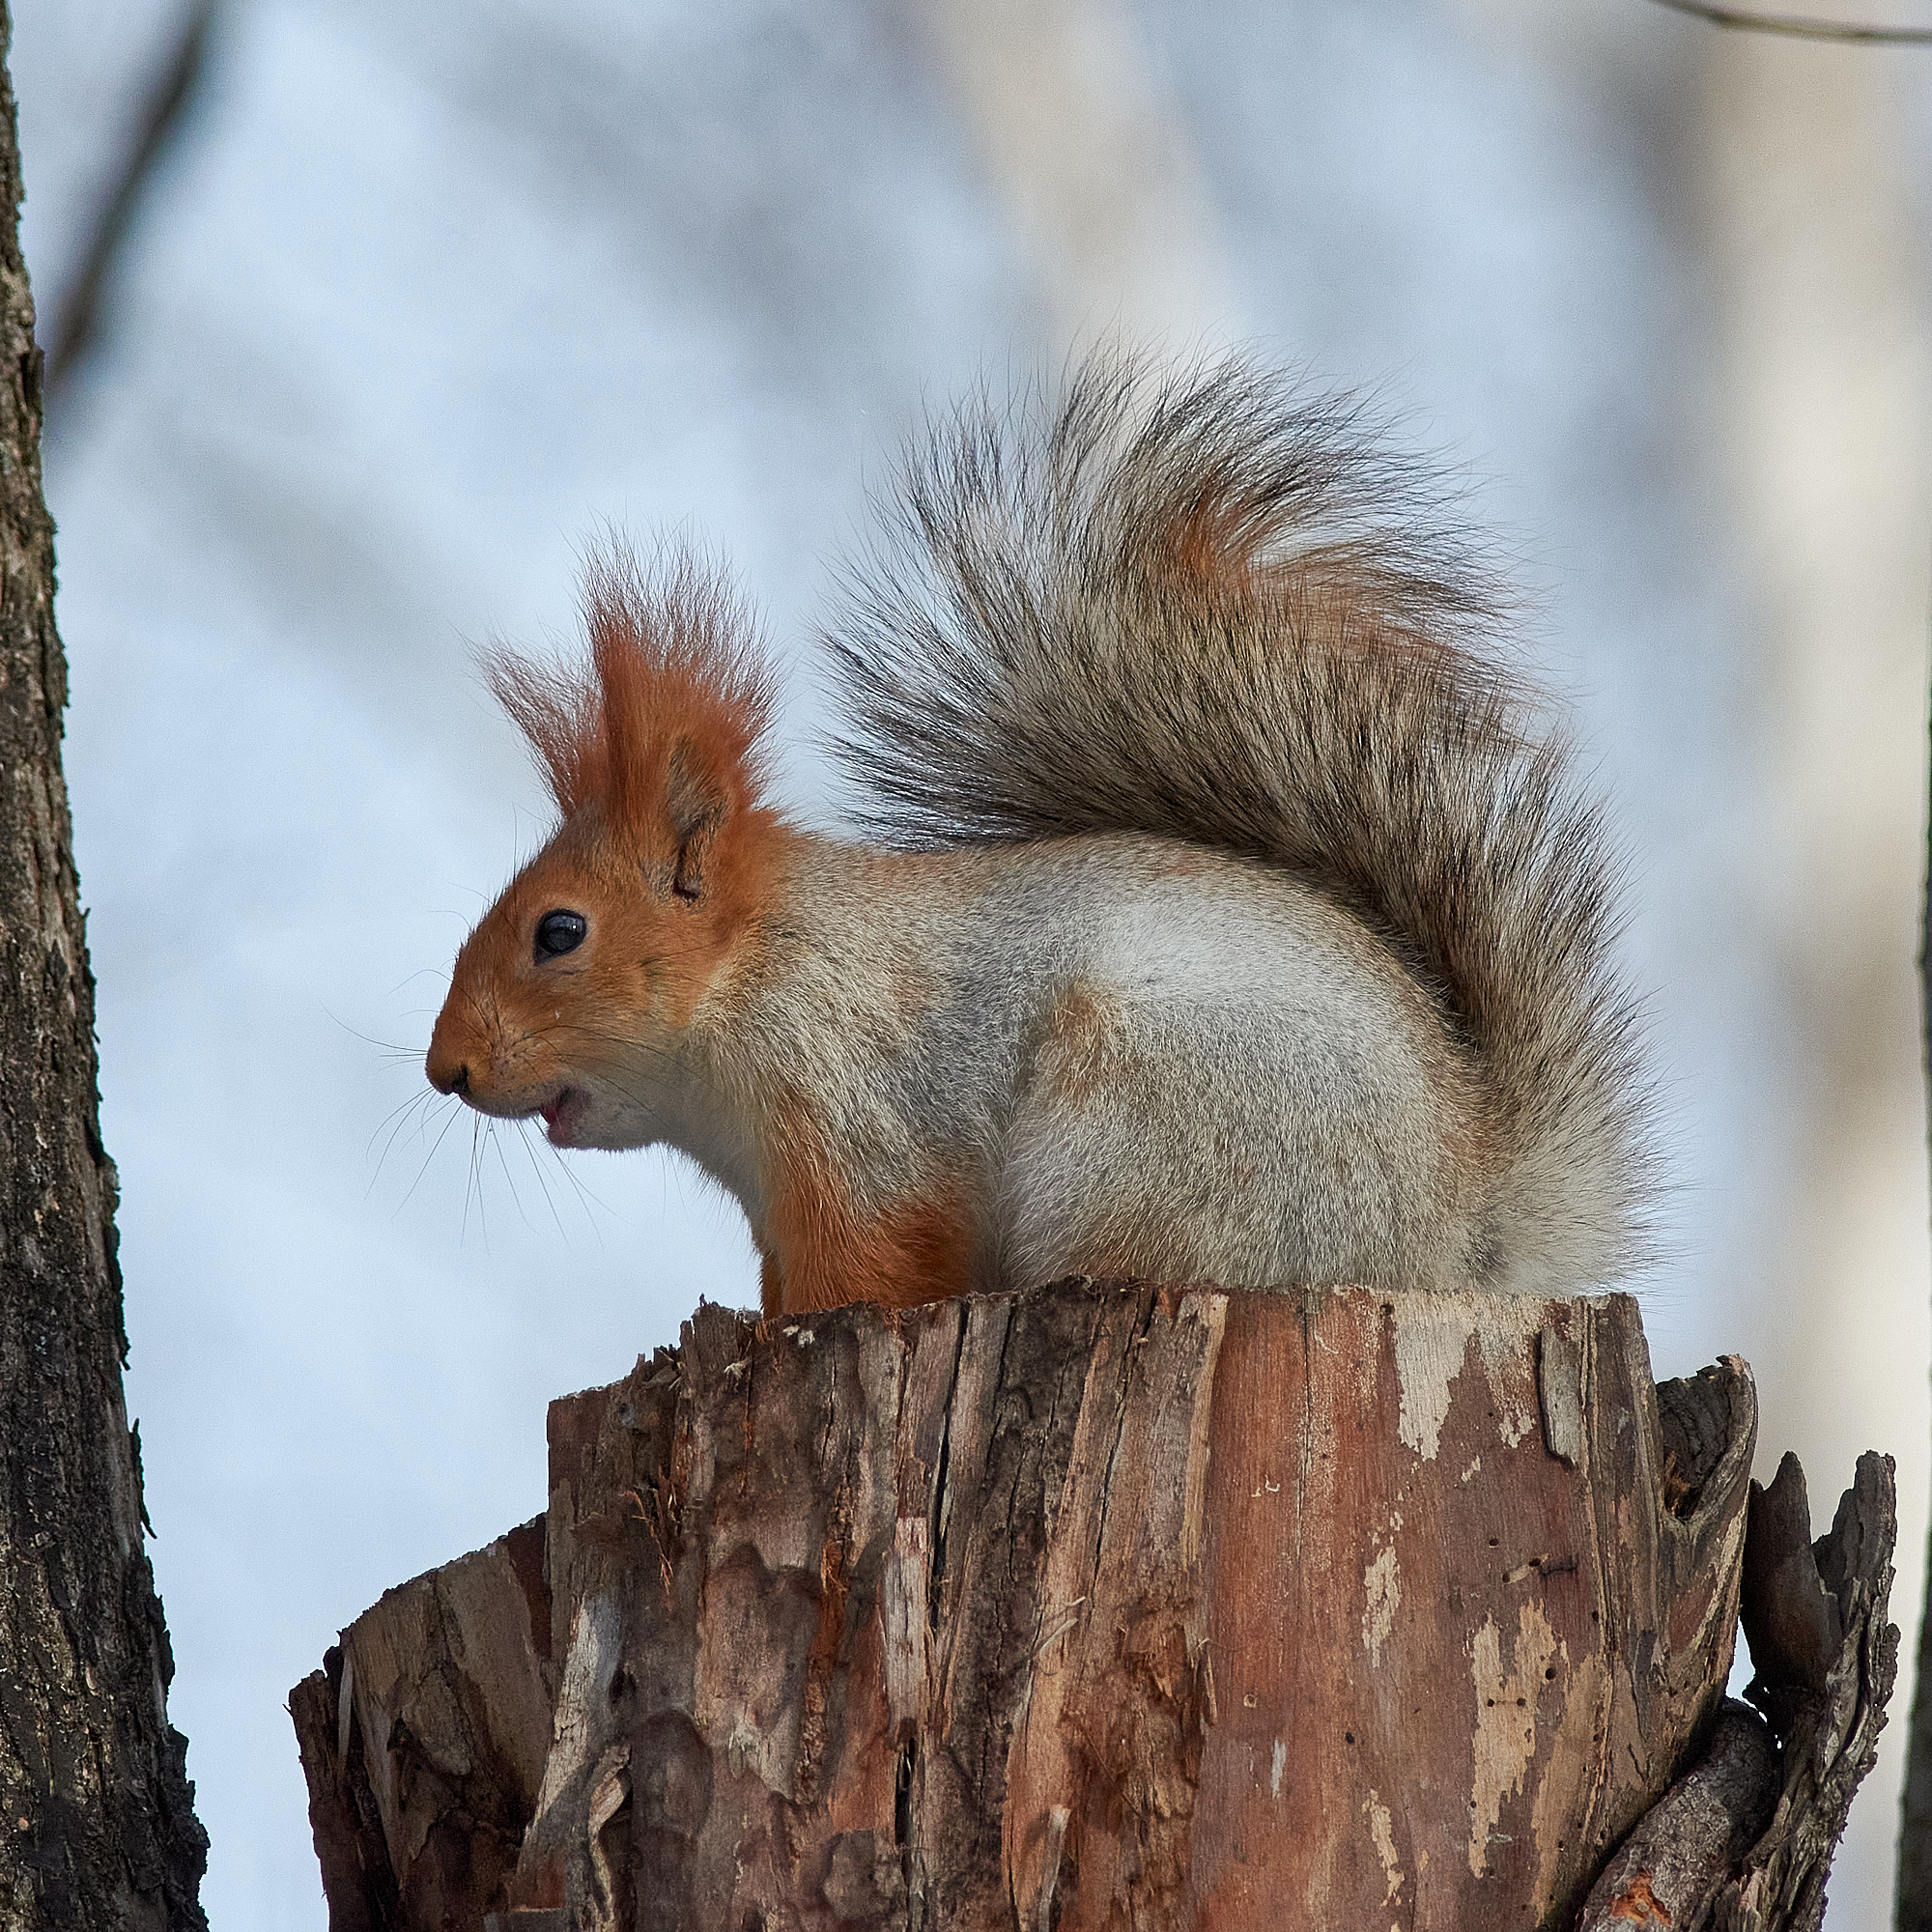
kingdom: Animalia
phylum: Chordata
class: Mammalia
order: Rodentia
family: Sciuridae
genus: Sciurus
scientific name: Sciurus vulgaris
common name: Eurasian red squirrel
